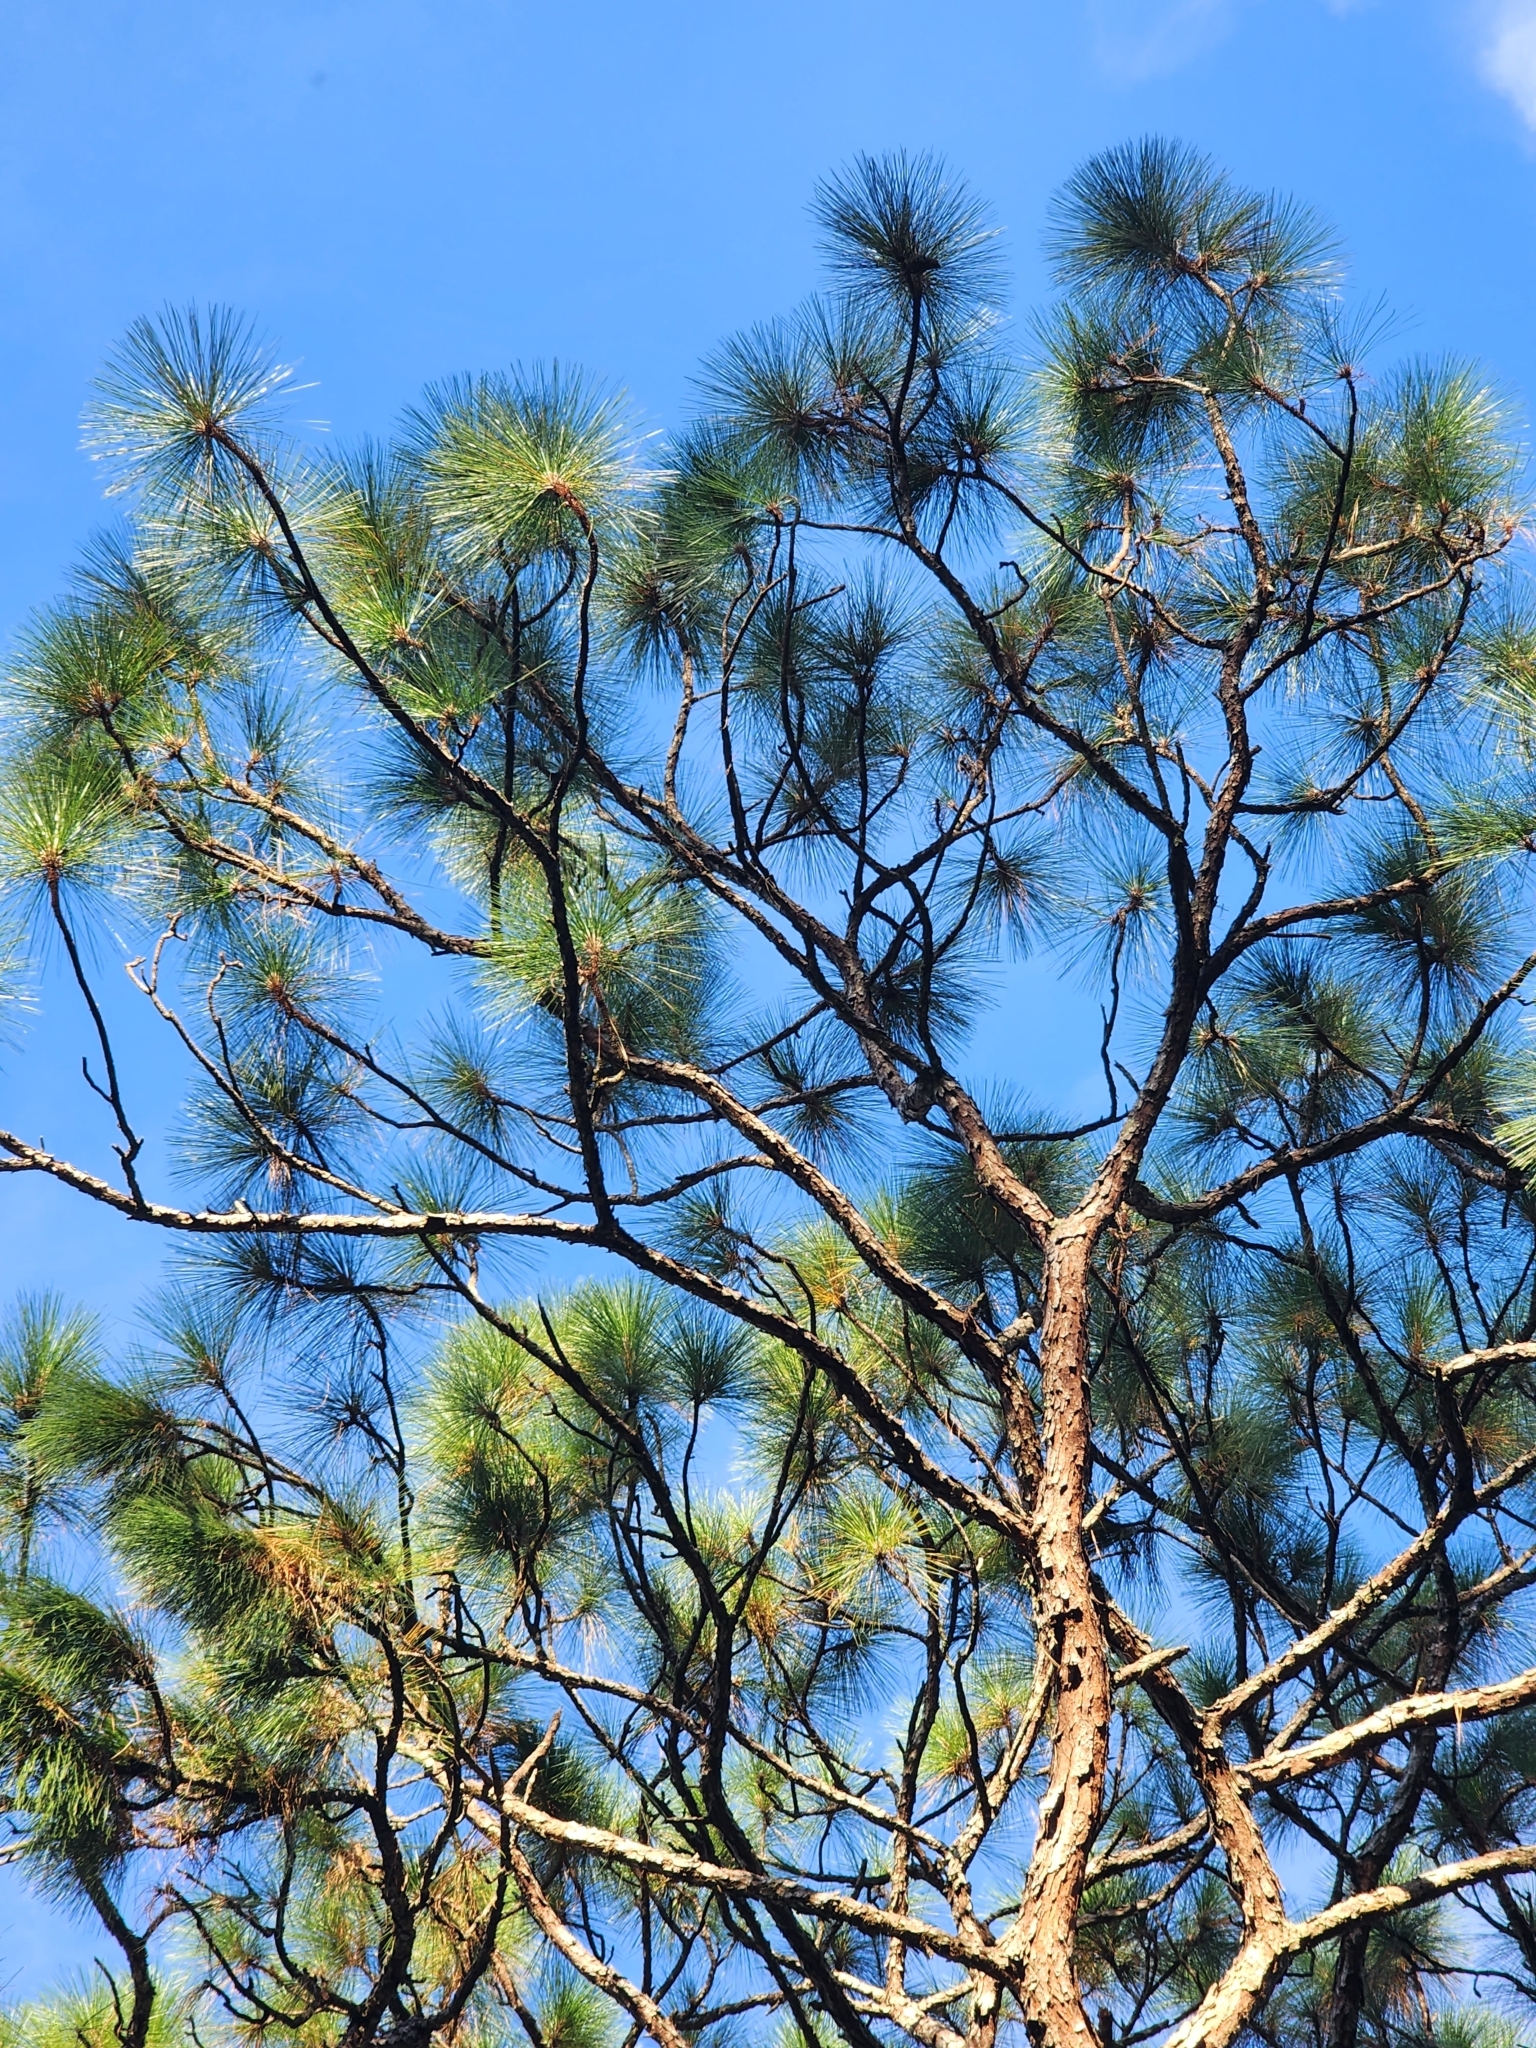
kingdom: Plantae
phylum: Tracheophyta
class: Pinopsida
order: Pinales
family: Pinaceae
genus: Pinus
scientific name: Pinus palustris
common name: Longleaf pine
